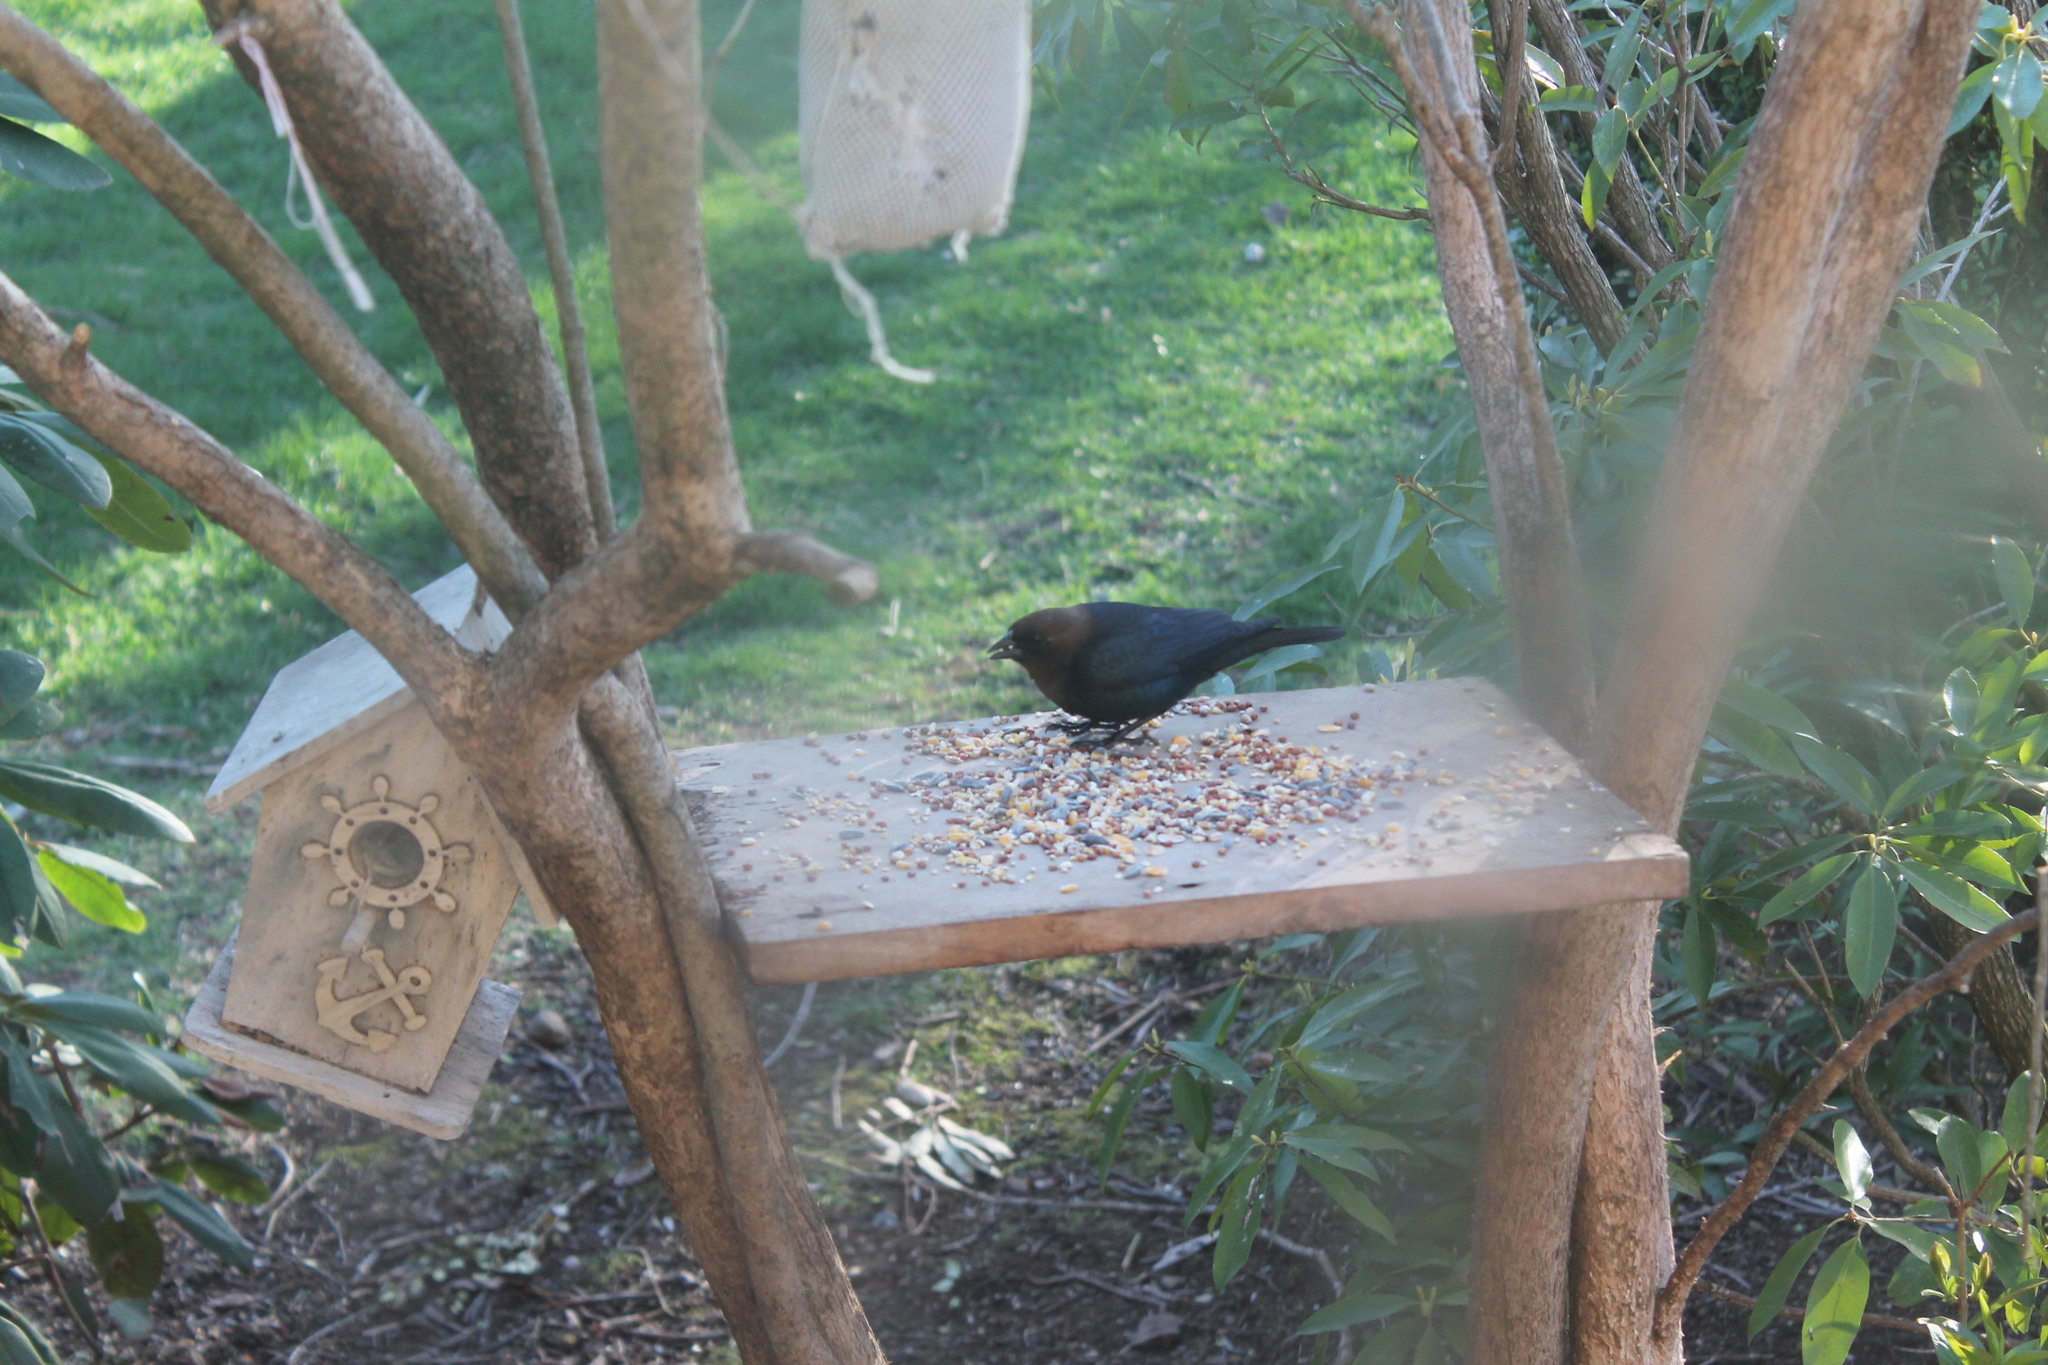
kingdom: Animalia
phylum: Chordata
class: Aves
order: Passeriformes
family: Icteridae
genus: Molothrus
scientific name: Molothrus ater
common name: Brown-headed cowbird
